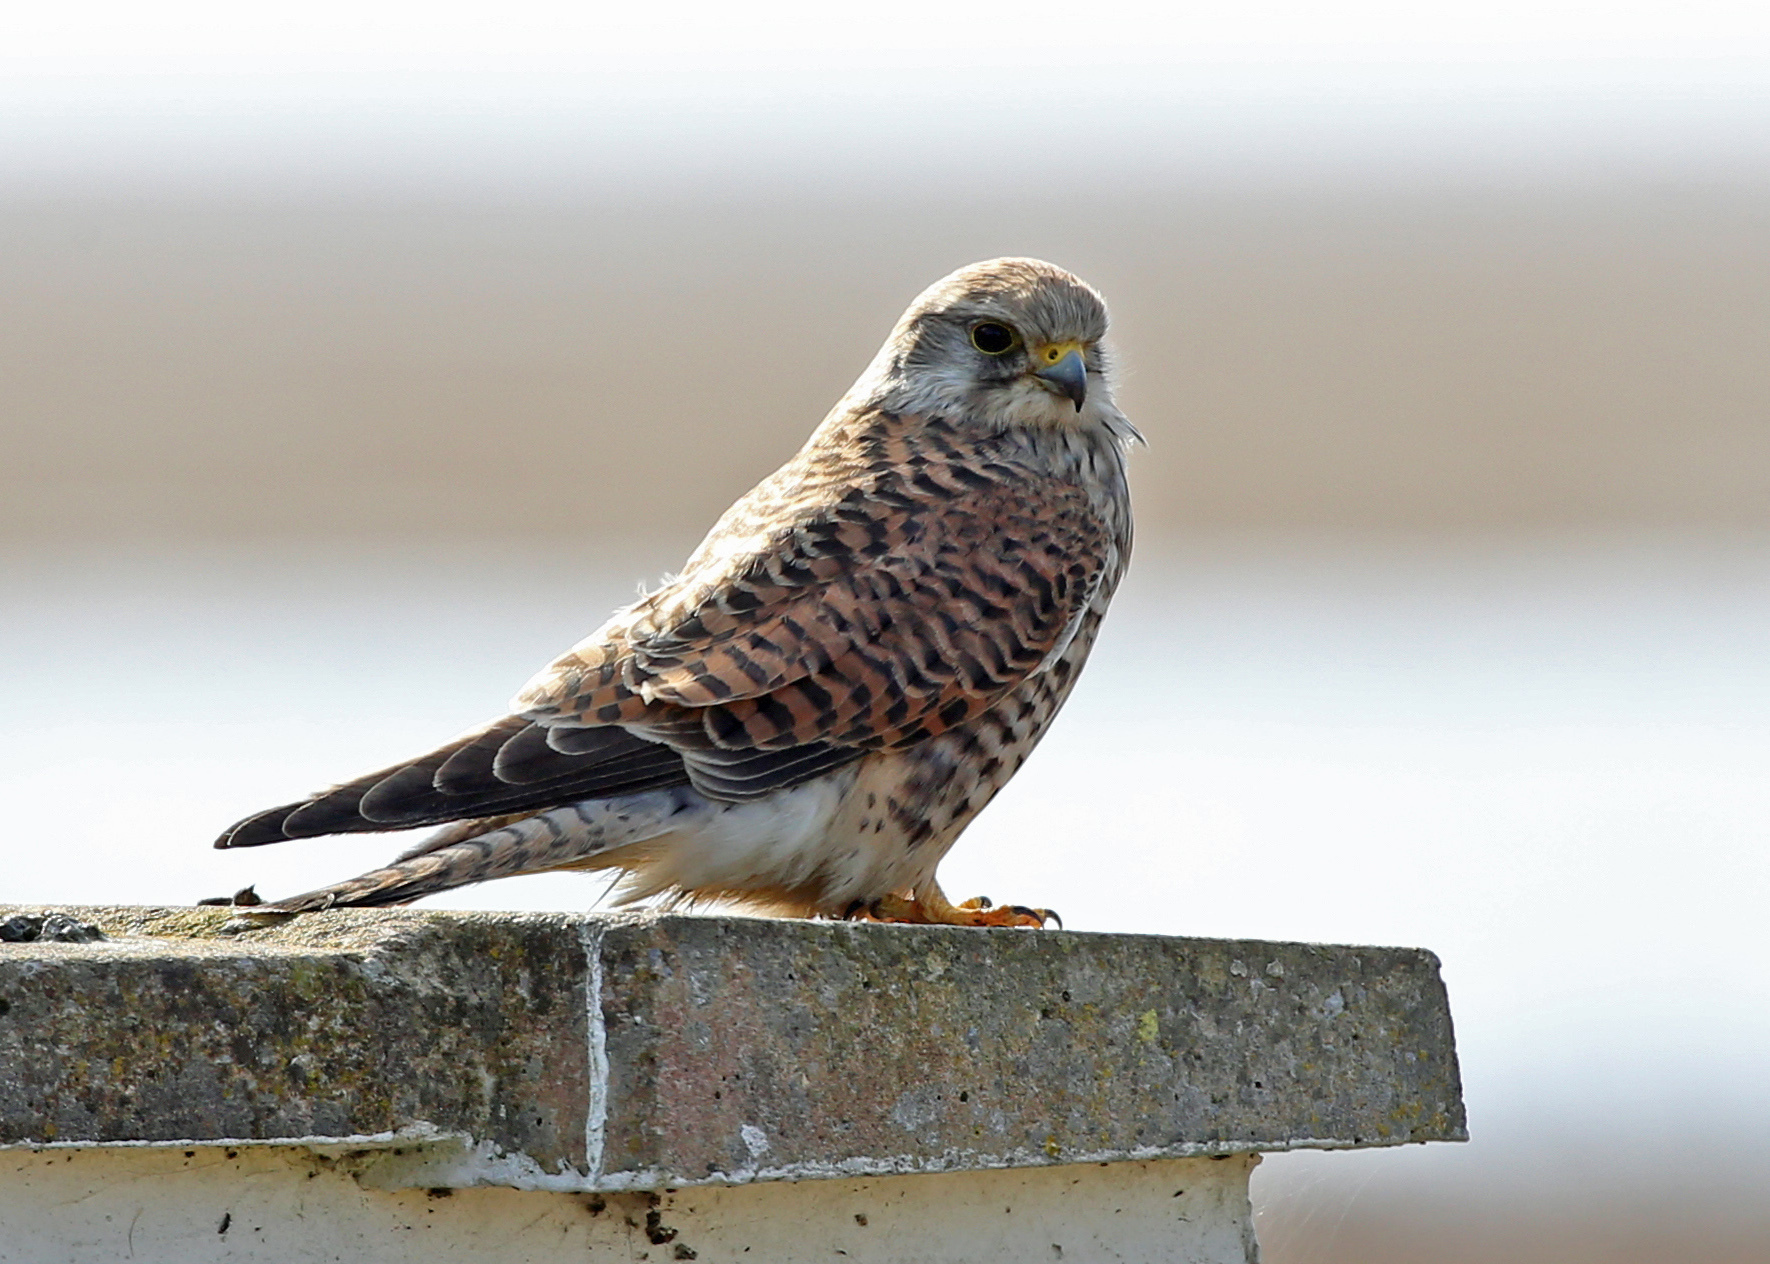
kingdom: Animalia
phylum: Chordata
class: Aves
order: Falconiformes
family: Falconidae
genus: Falco
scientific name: Falco tinnunculus
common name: Common kestrel
